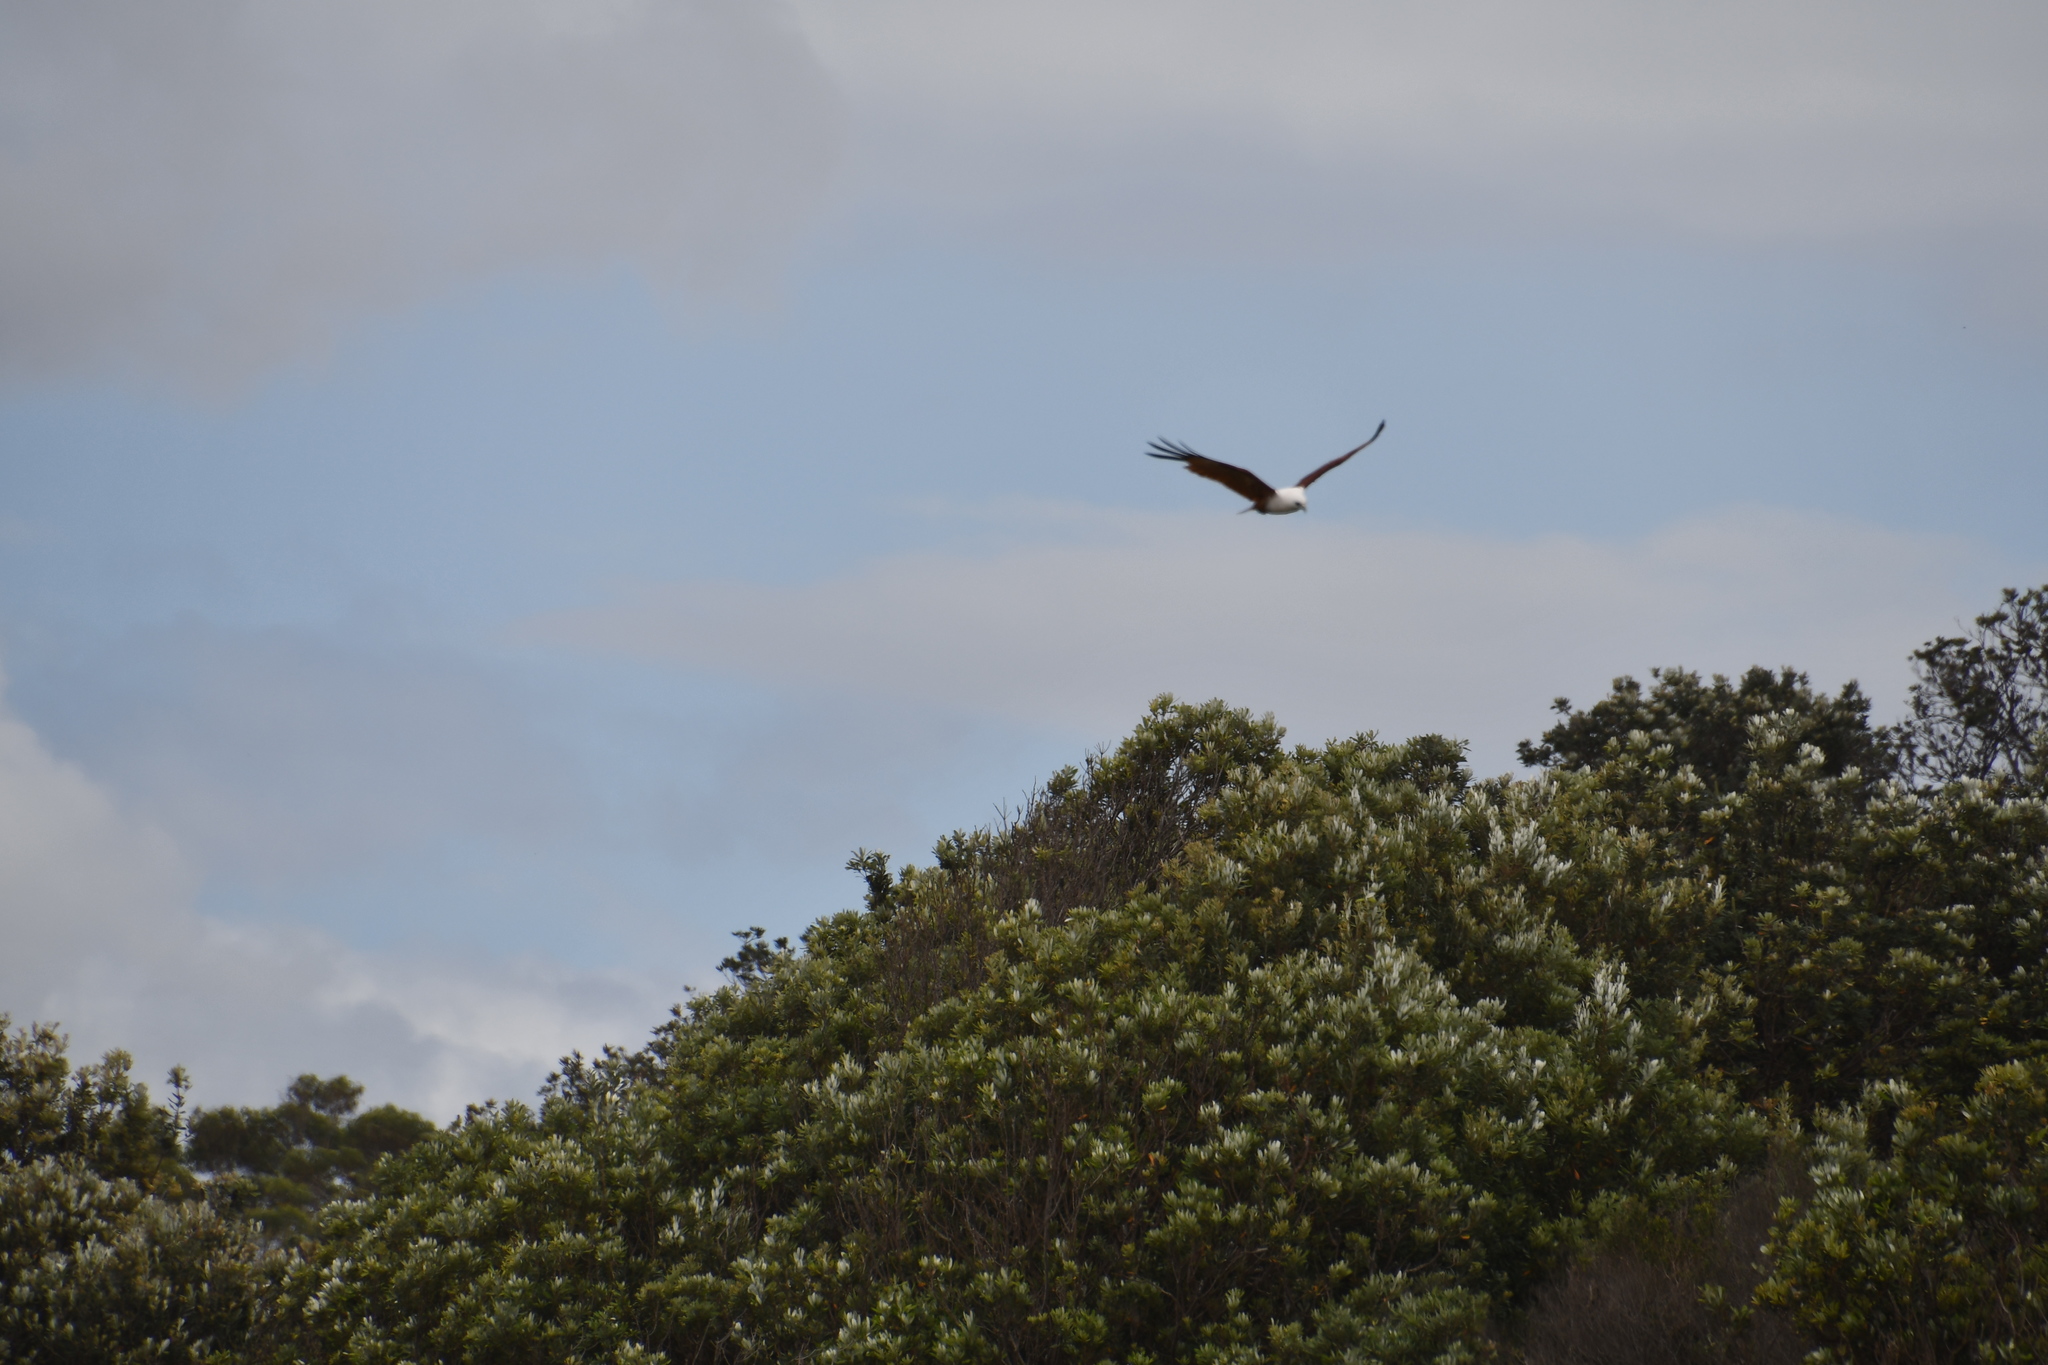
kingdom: Animalia
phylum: Chordata
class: Aves
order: Accipitriformes
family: Accipitridae
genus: Haliastur
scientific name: Haliastur indus
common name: Brahminy kite
